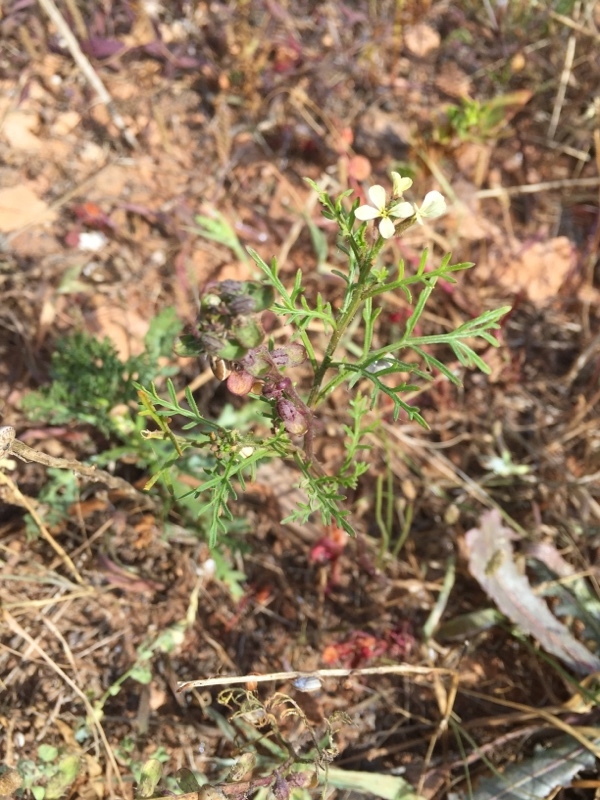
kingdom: Plantae
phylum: Tracheophyta
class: Magnoliopsida
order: Brassicales
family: Brassicaceae
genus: Carrichtera
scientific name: Carrichtera annua
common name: Cress rocket
